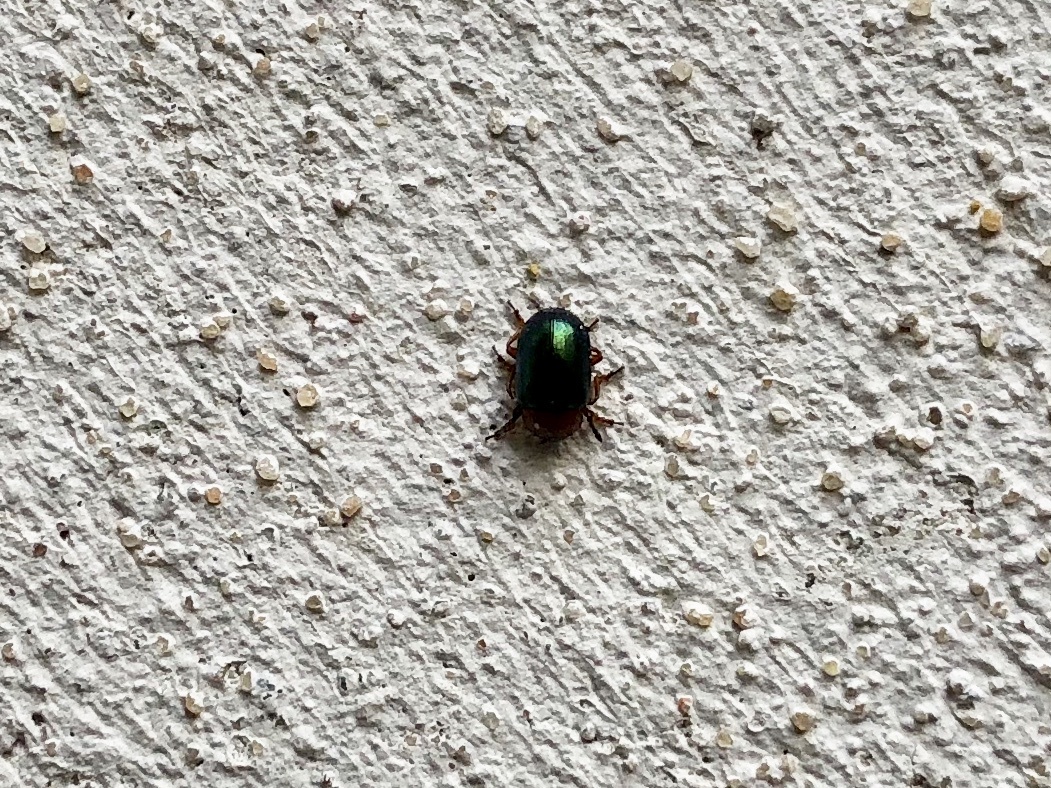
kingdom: Animalia
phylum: Arthropoda
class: Insecta
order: Coleoptera
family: Chrysomelidae
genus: Gastrophysa
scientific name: Gastrophysa polygoni
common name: Knotweed leaf beetle
